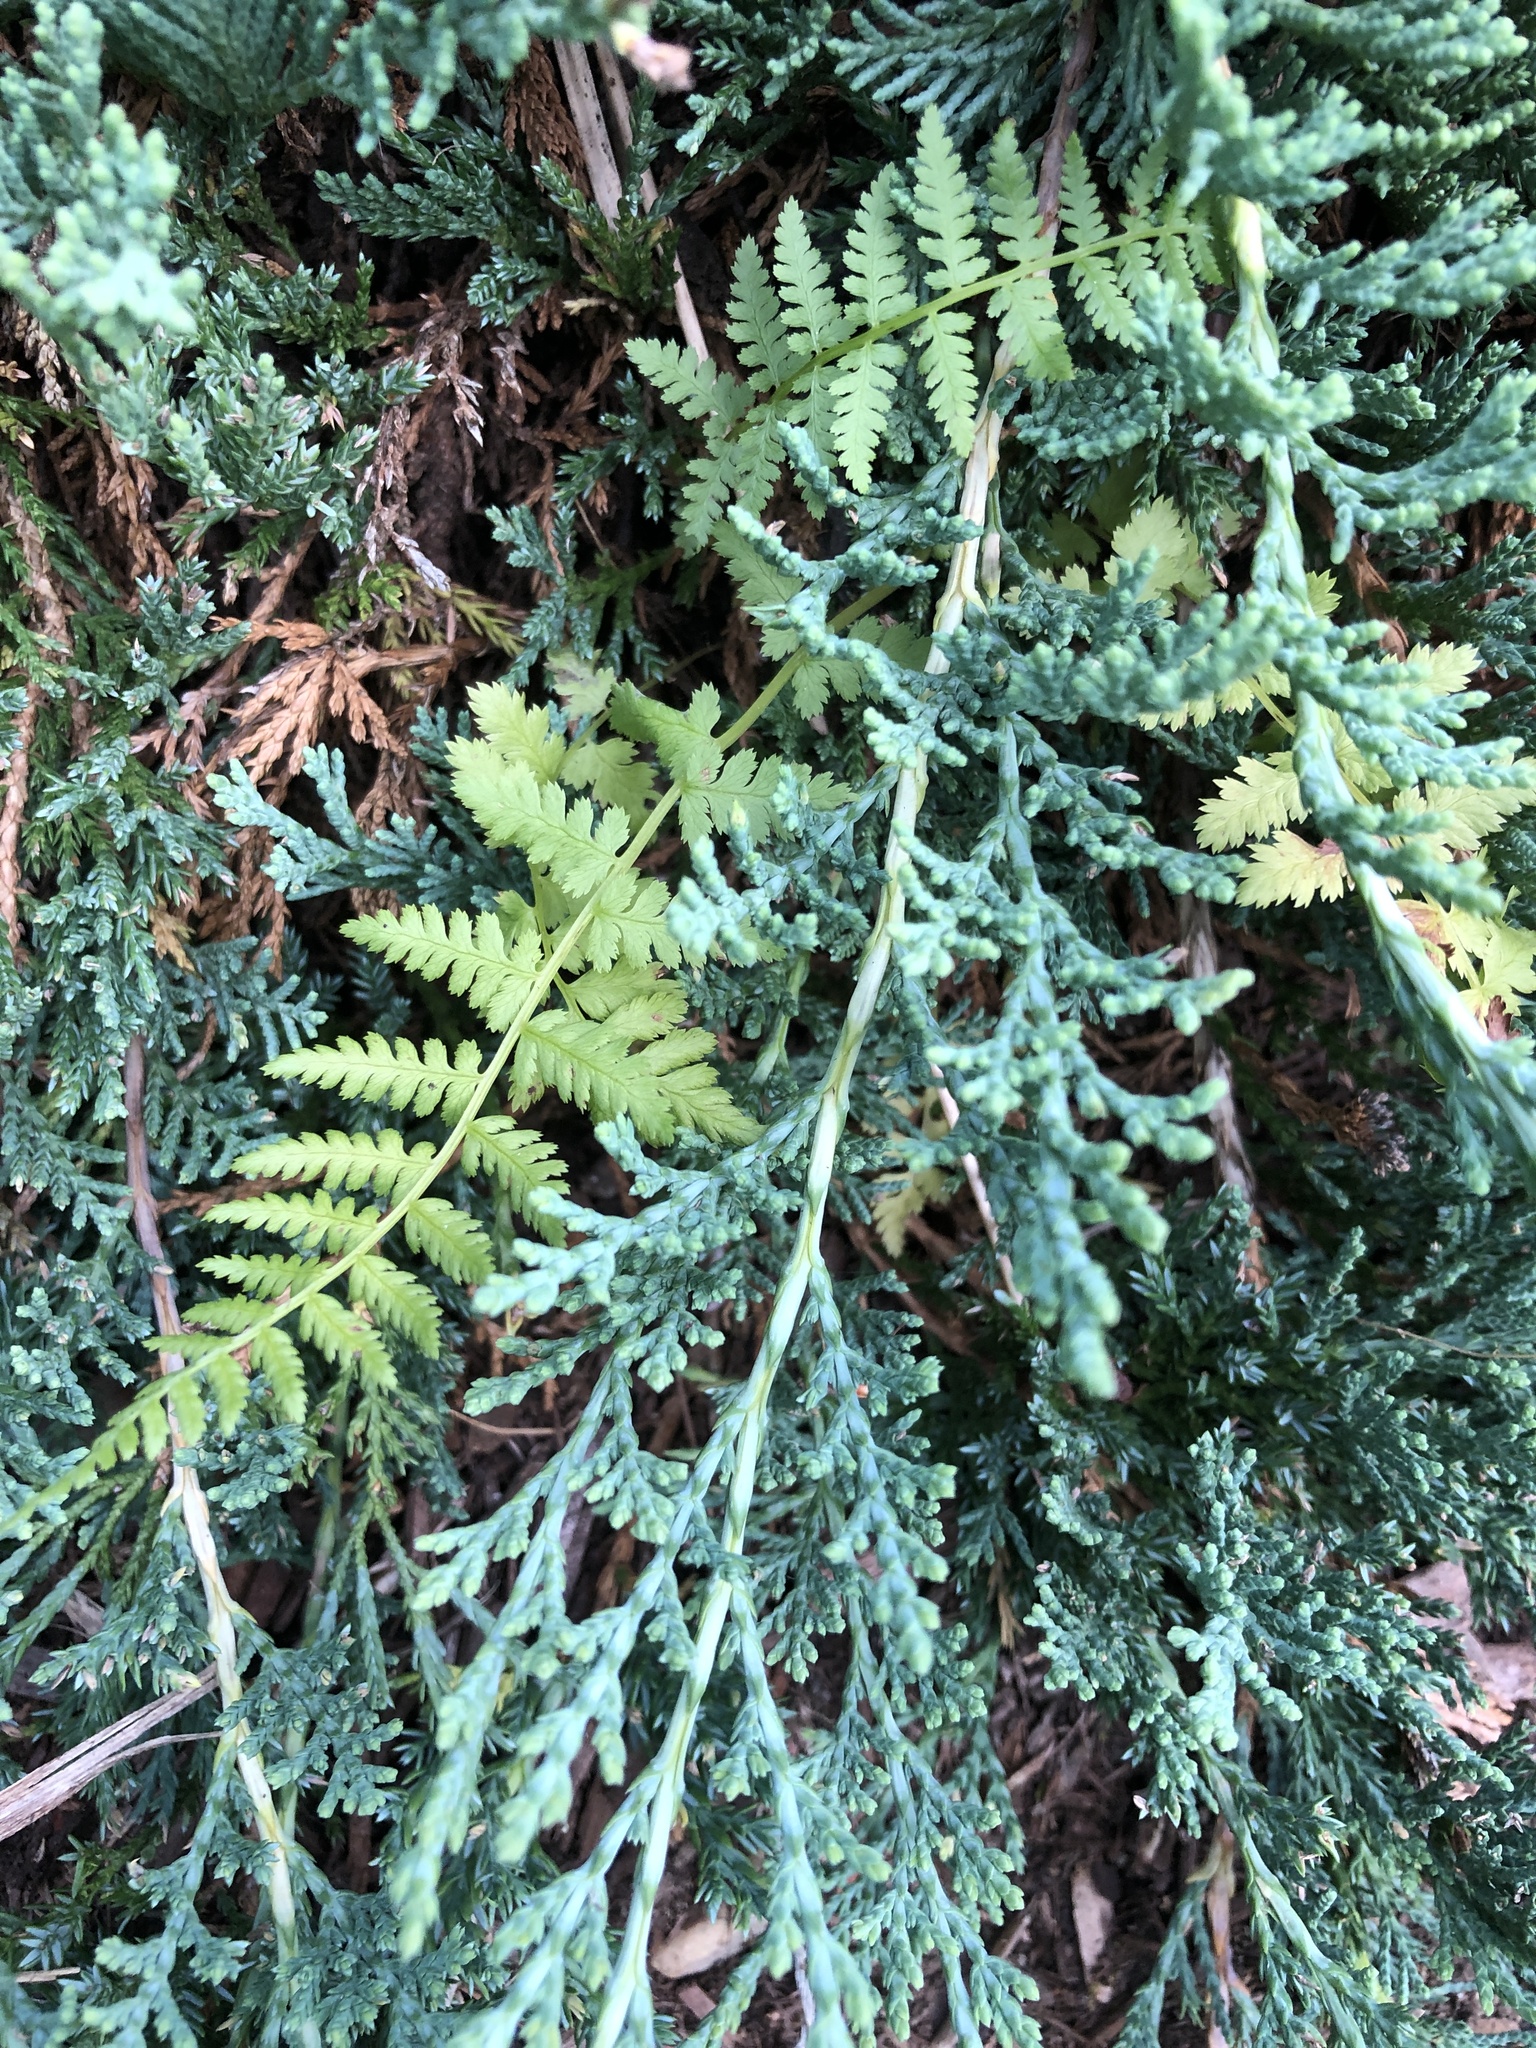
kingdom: Plantae
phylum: Tracheophyta
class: Polypodiopsida
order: Polypodiales
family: Athyriaceae
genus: Athyrium
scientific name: Athyrium angustum
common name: Northern lady fern
